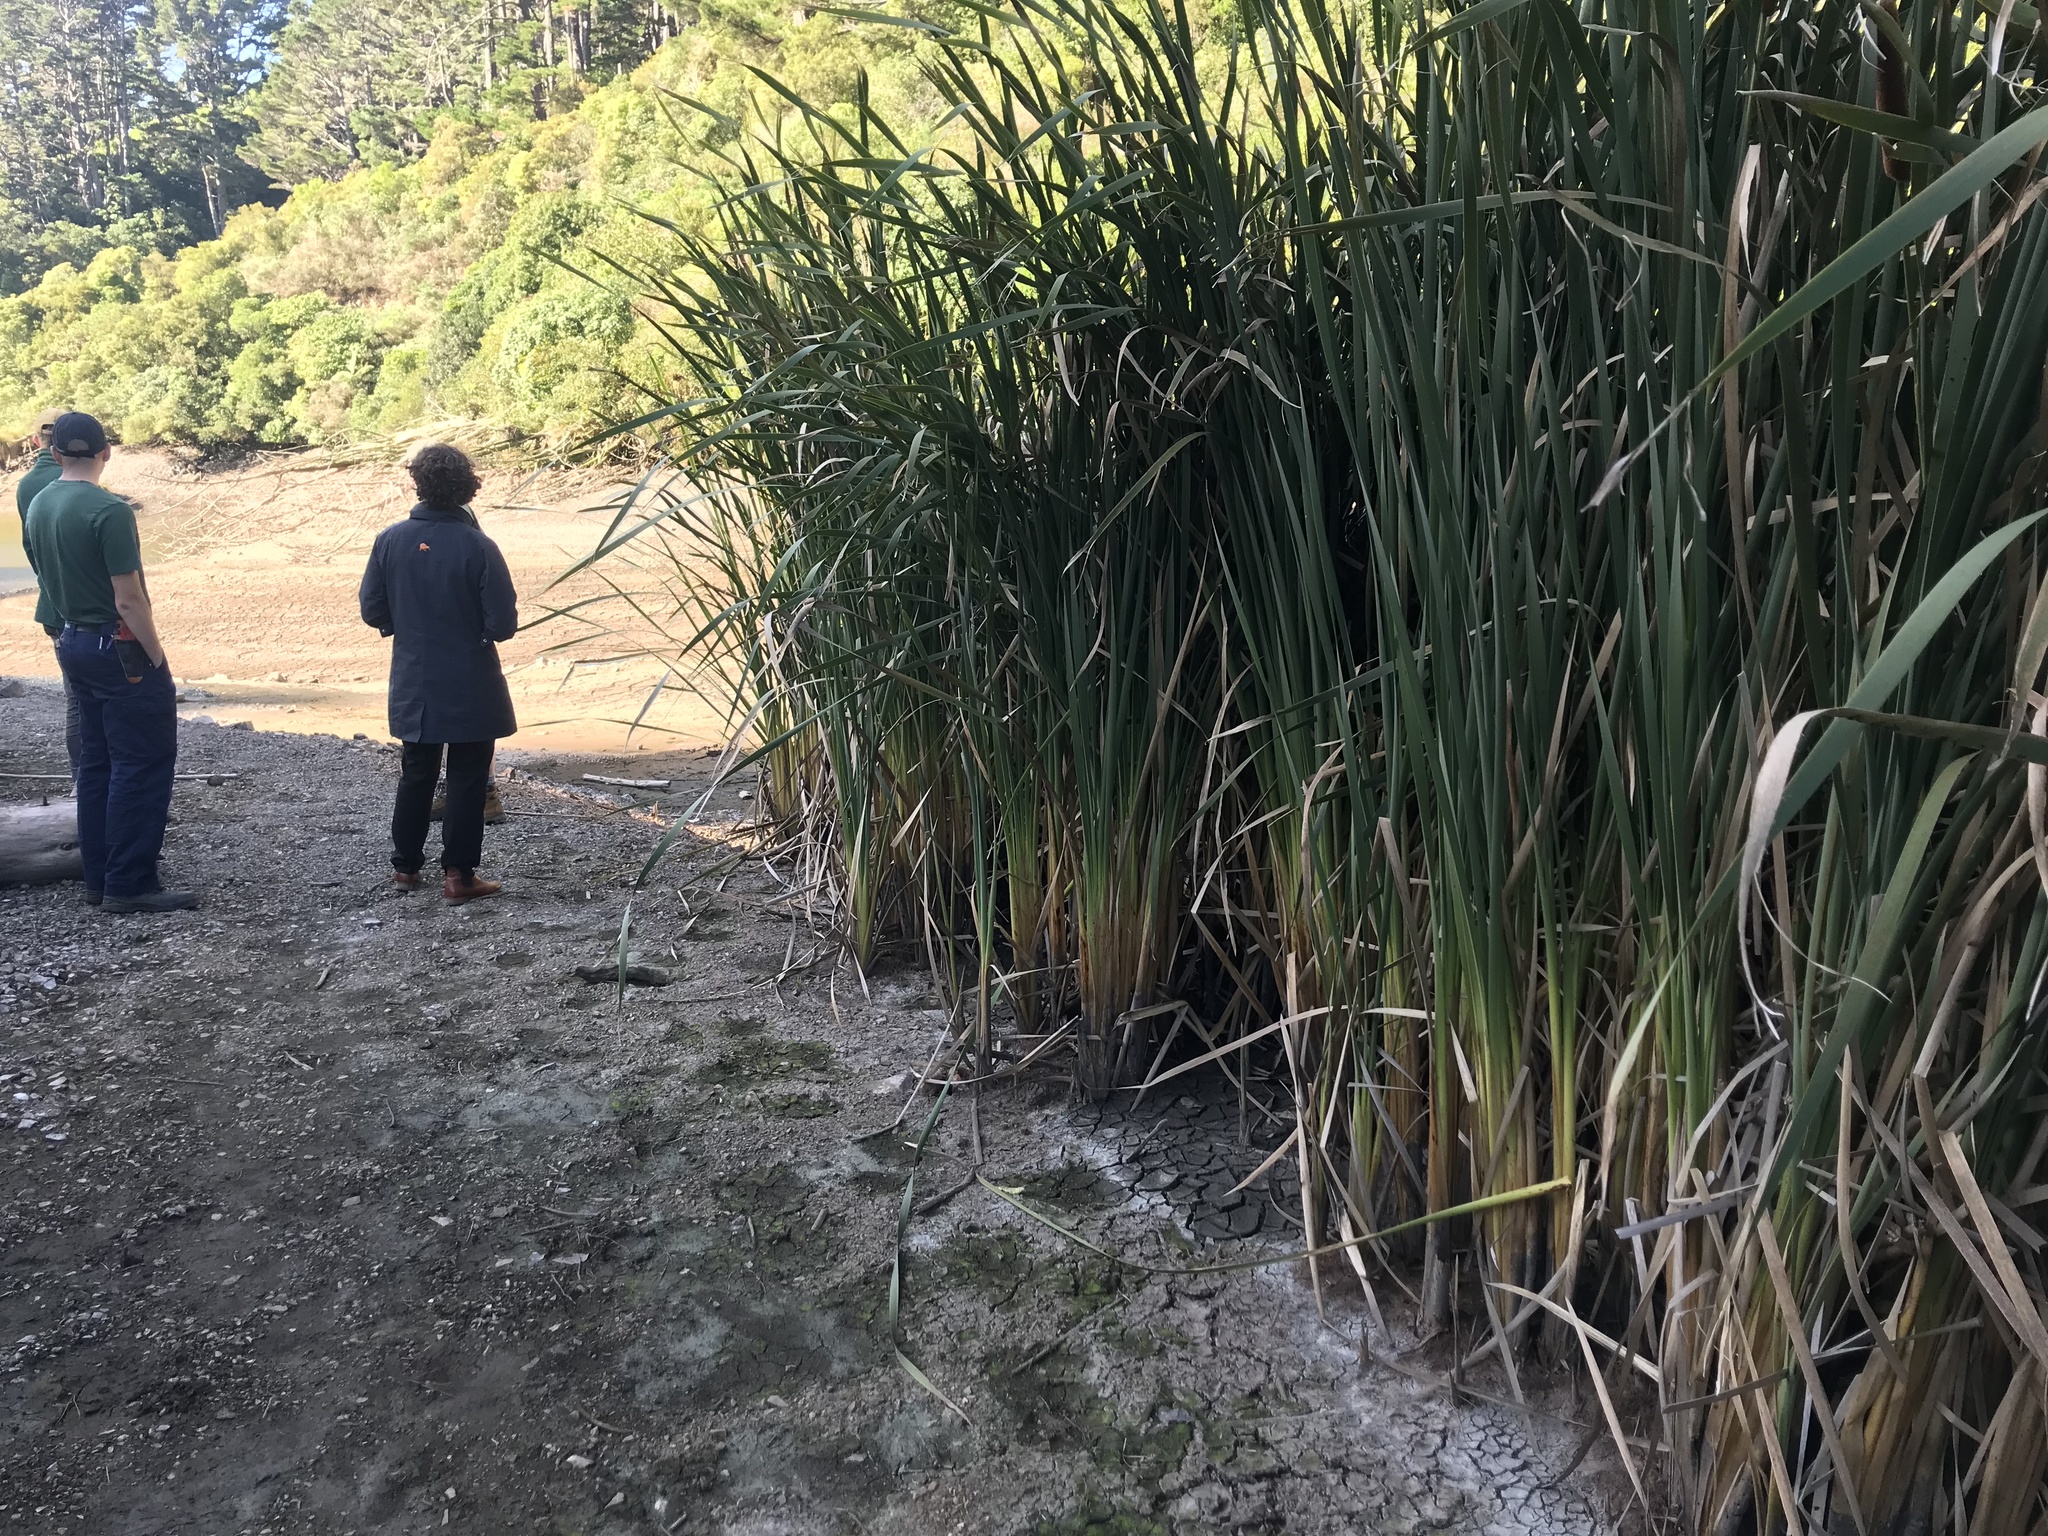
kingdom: Plantae
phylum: Tracheophyta
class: Liliopsida
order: Poales
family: Typhaceae
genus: Typha
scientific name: Typha orientalis
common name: Bullrush
